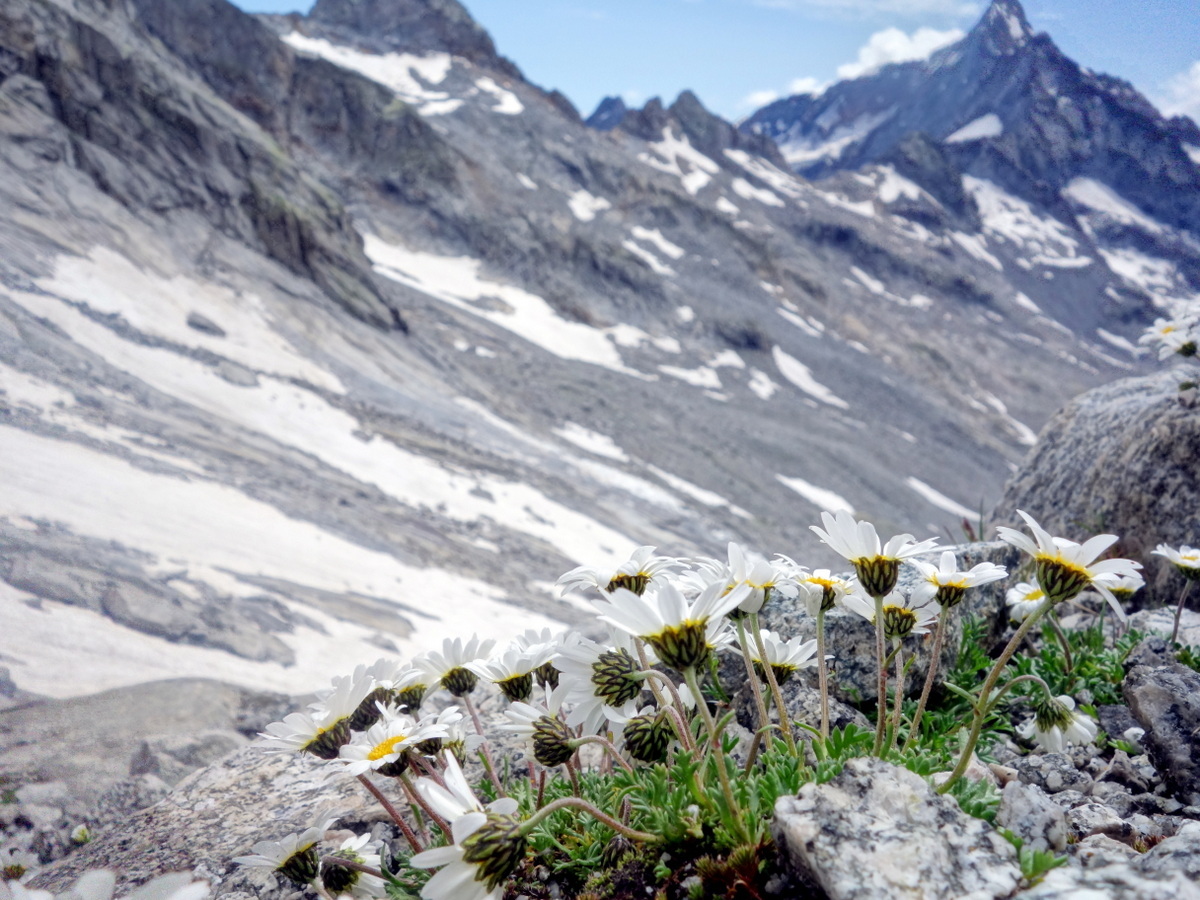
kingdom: Plantae
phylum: Tracheophyta
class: Magnoliopsida
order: Asterales
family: Asteraceae
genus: Leucanthemopsis
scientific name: Leucanthemopsis alpina
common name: Alpine moon daisy
